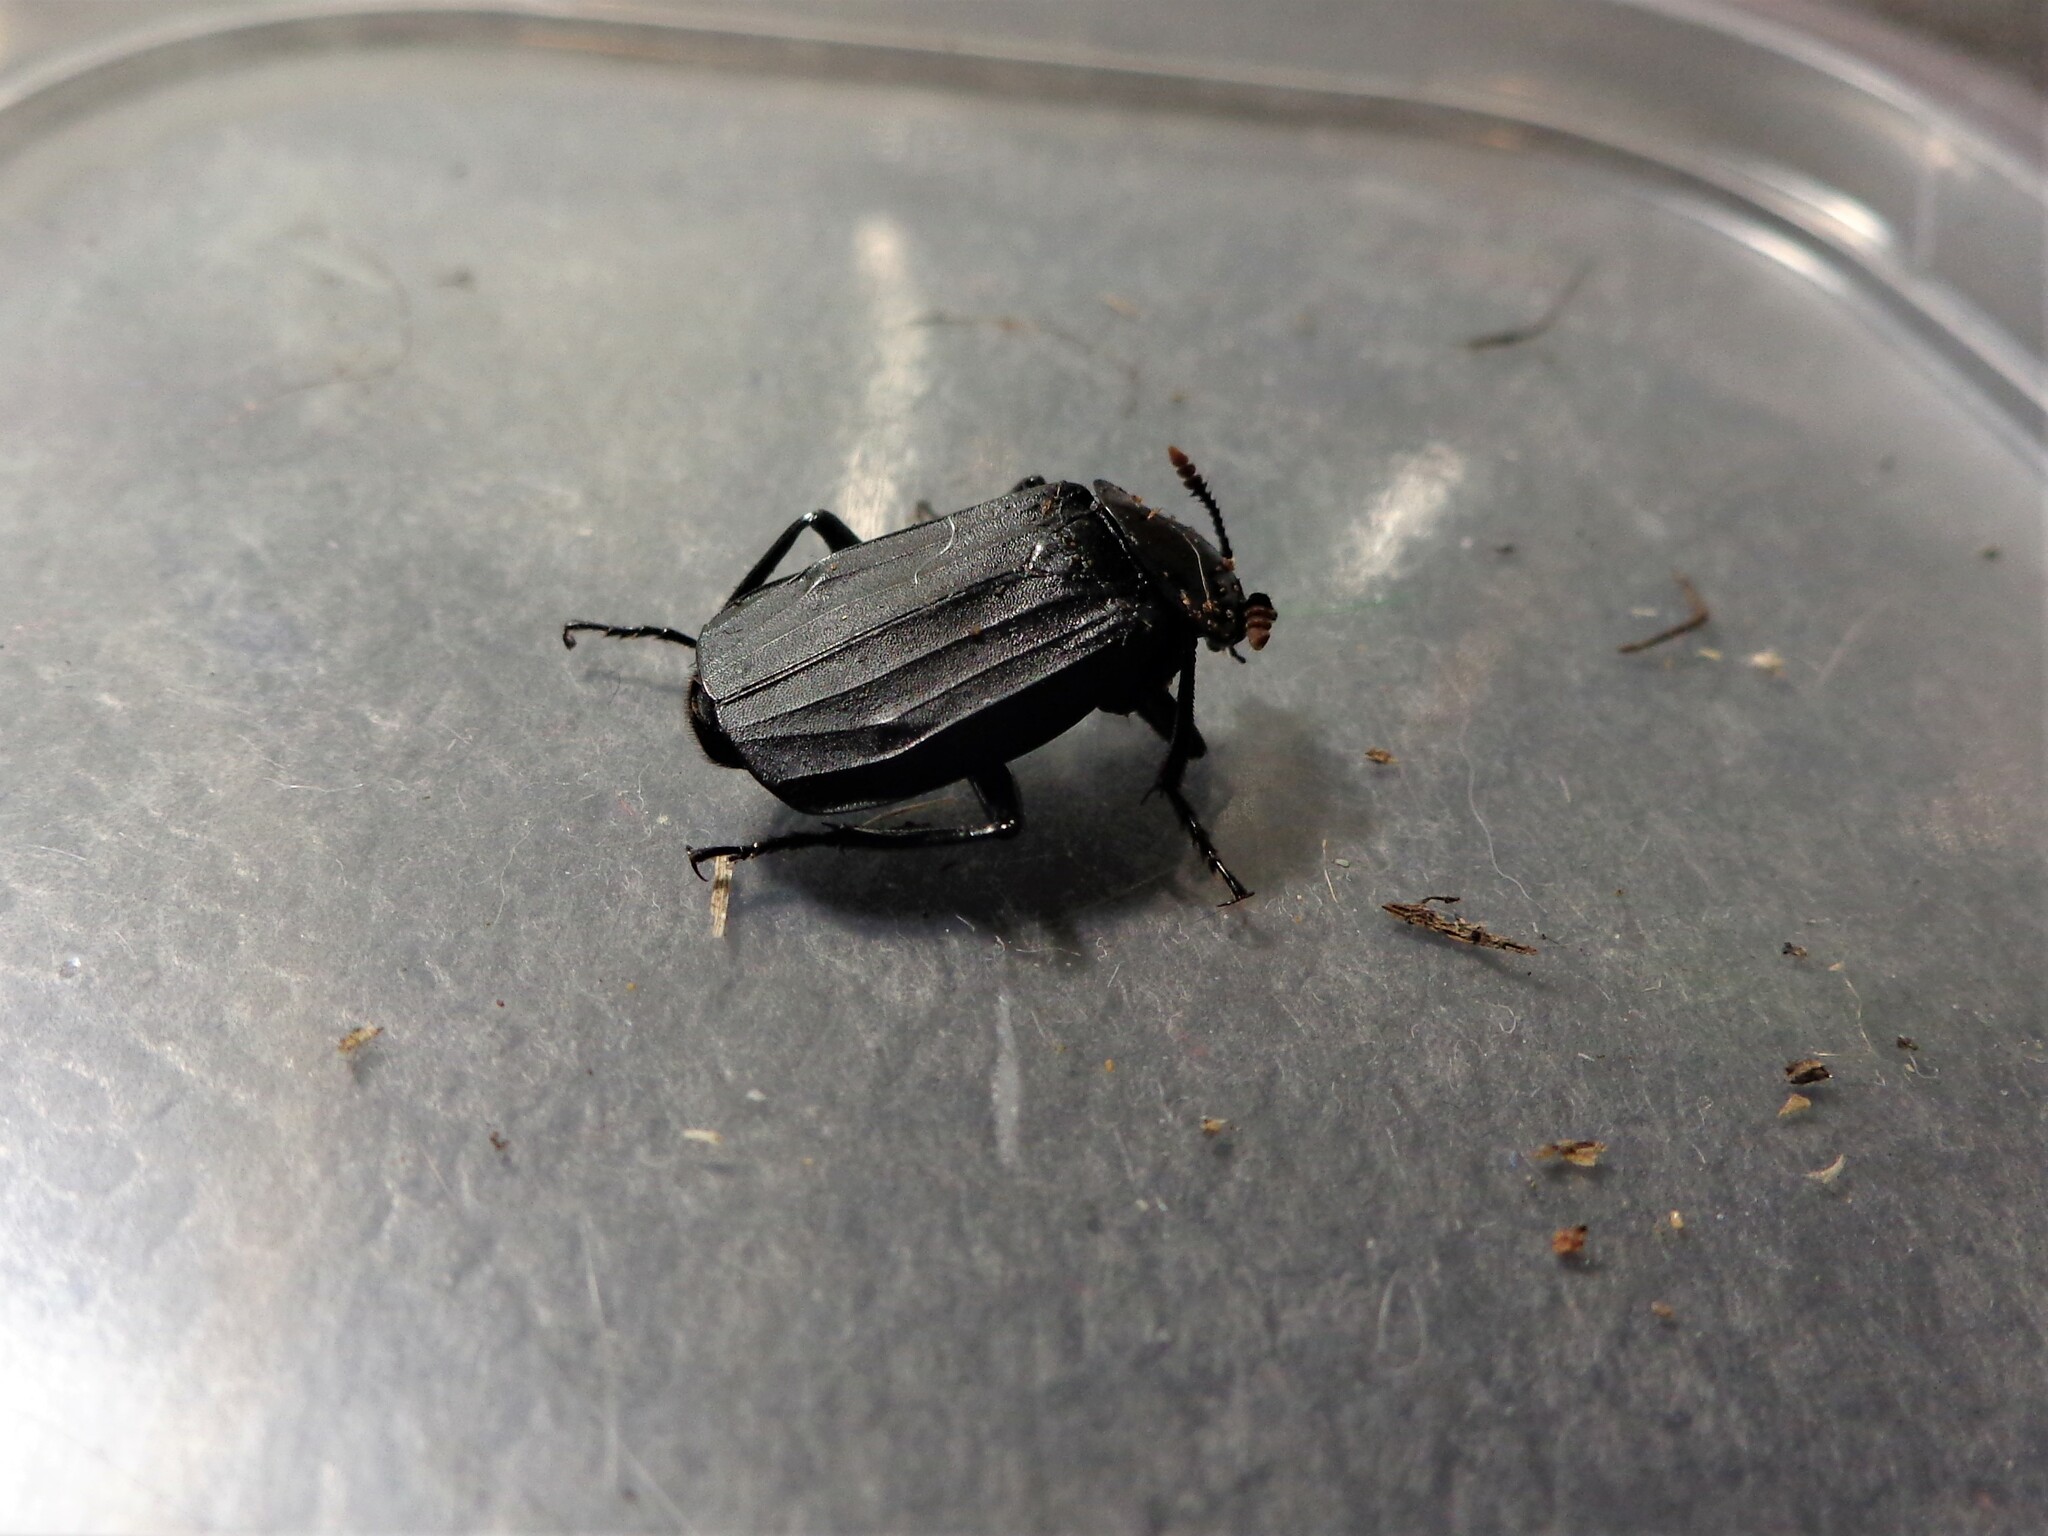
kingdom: Animalia
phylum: Arthropoda
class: Insecta
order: Coleoptera
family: Staphylinidae
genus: Necrodes
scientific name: Necrodes littoralis
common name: Shore sexton beetle
